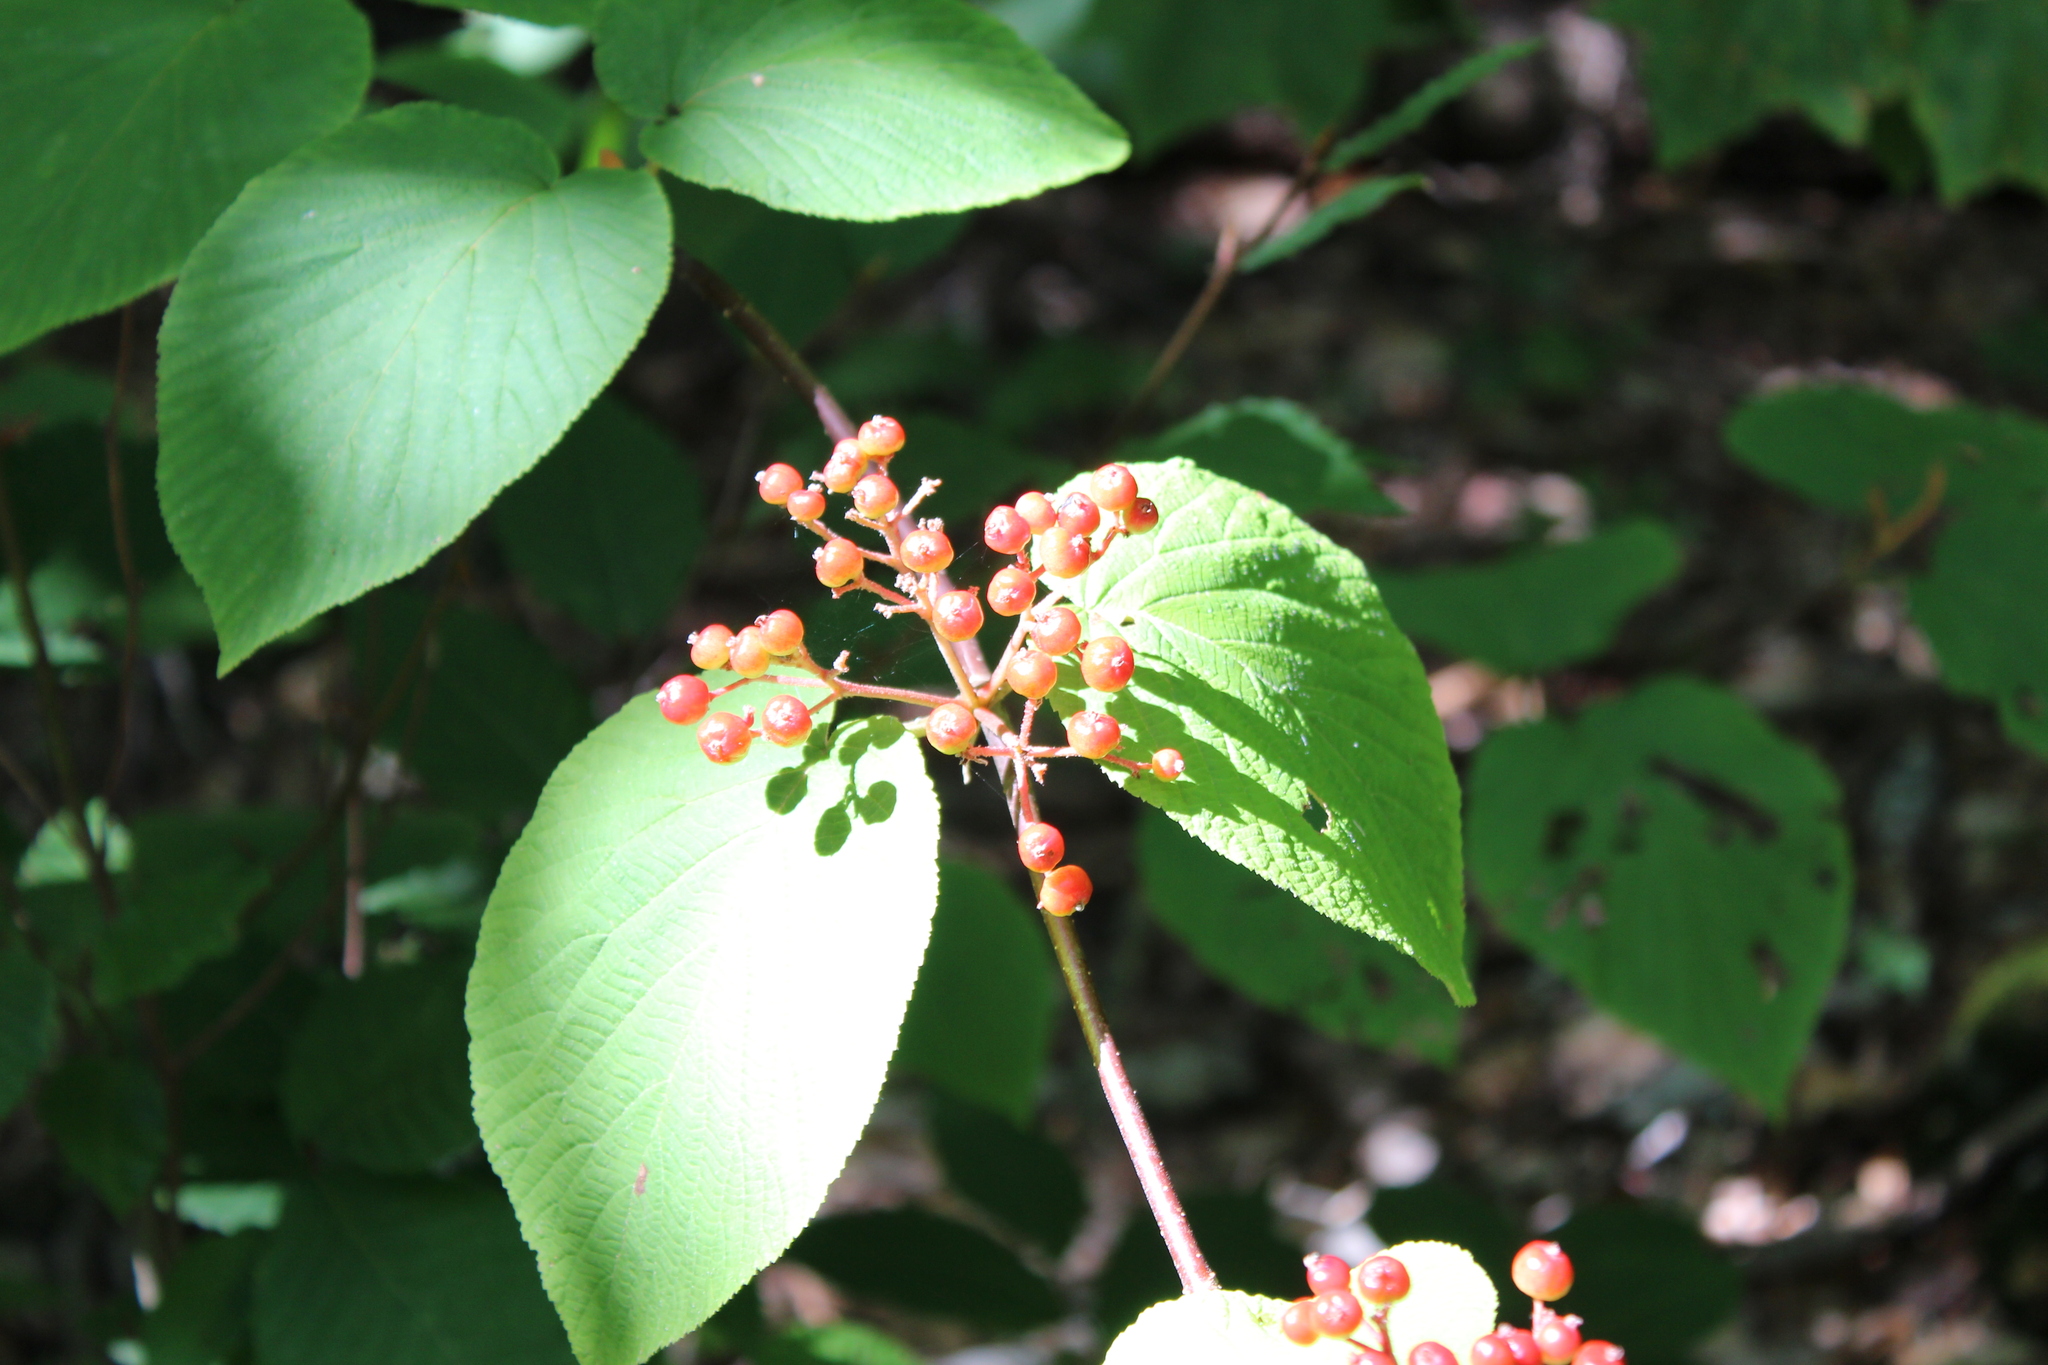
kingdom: Plantae
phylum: Tracheophyta
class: Magnoliopsida
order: Dipsacales
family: Viburnaceae
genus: Viburnum
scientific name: Viburnum lantanoides
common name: Hobblebush
